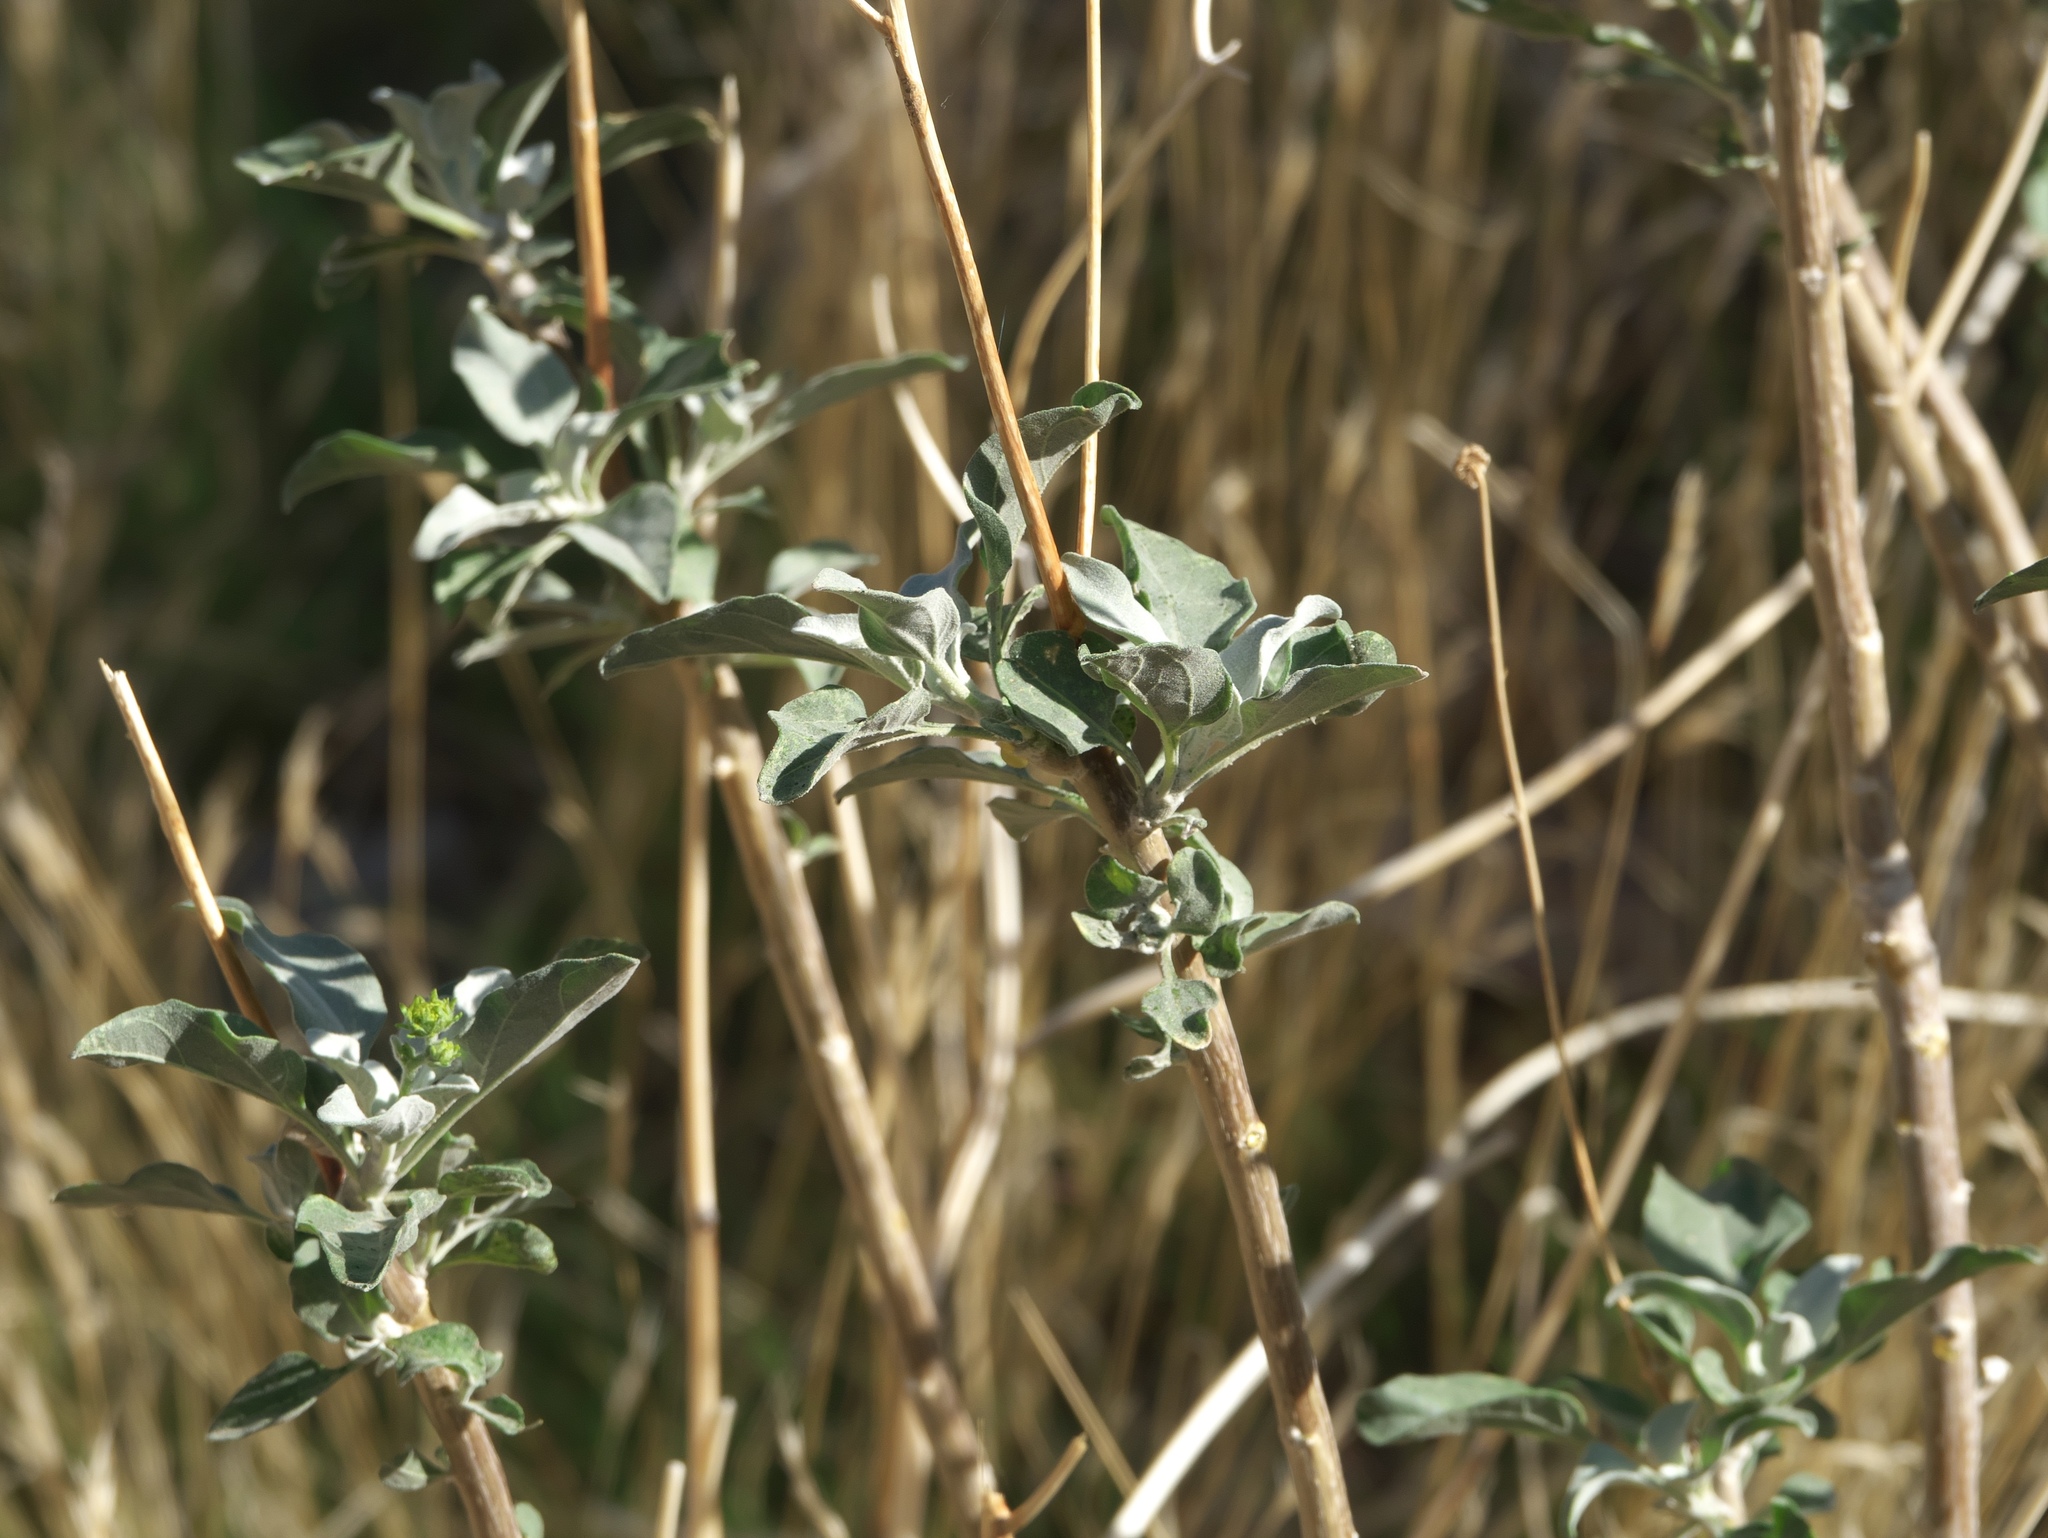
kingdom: Plantae
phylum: Tracheophyta
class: Magnoliopsida
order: Asterales
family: Asteraceae
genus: Encelia
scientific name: Encelia farinosa
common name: Brittlebush
